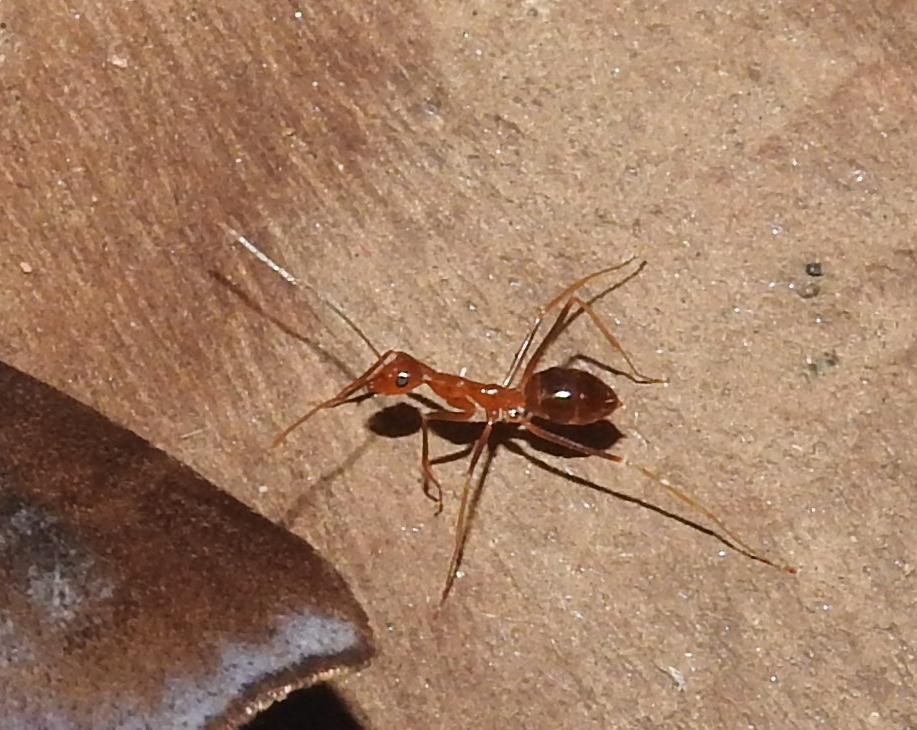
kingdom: Animalia
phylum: Arthropoda
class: Insecta
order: Hymenoptera
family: Formicidae
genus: Anoplolepis
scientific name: Anoplolepis gracilipes
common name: Ant
